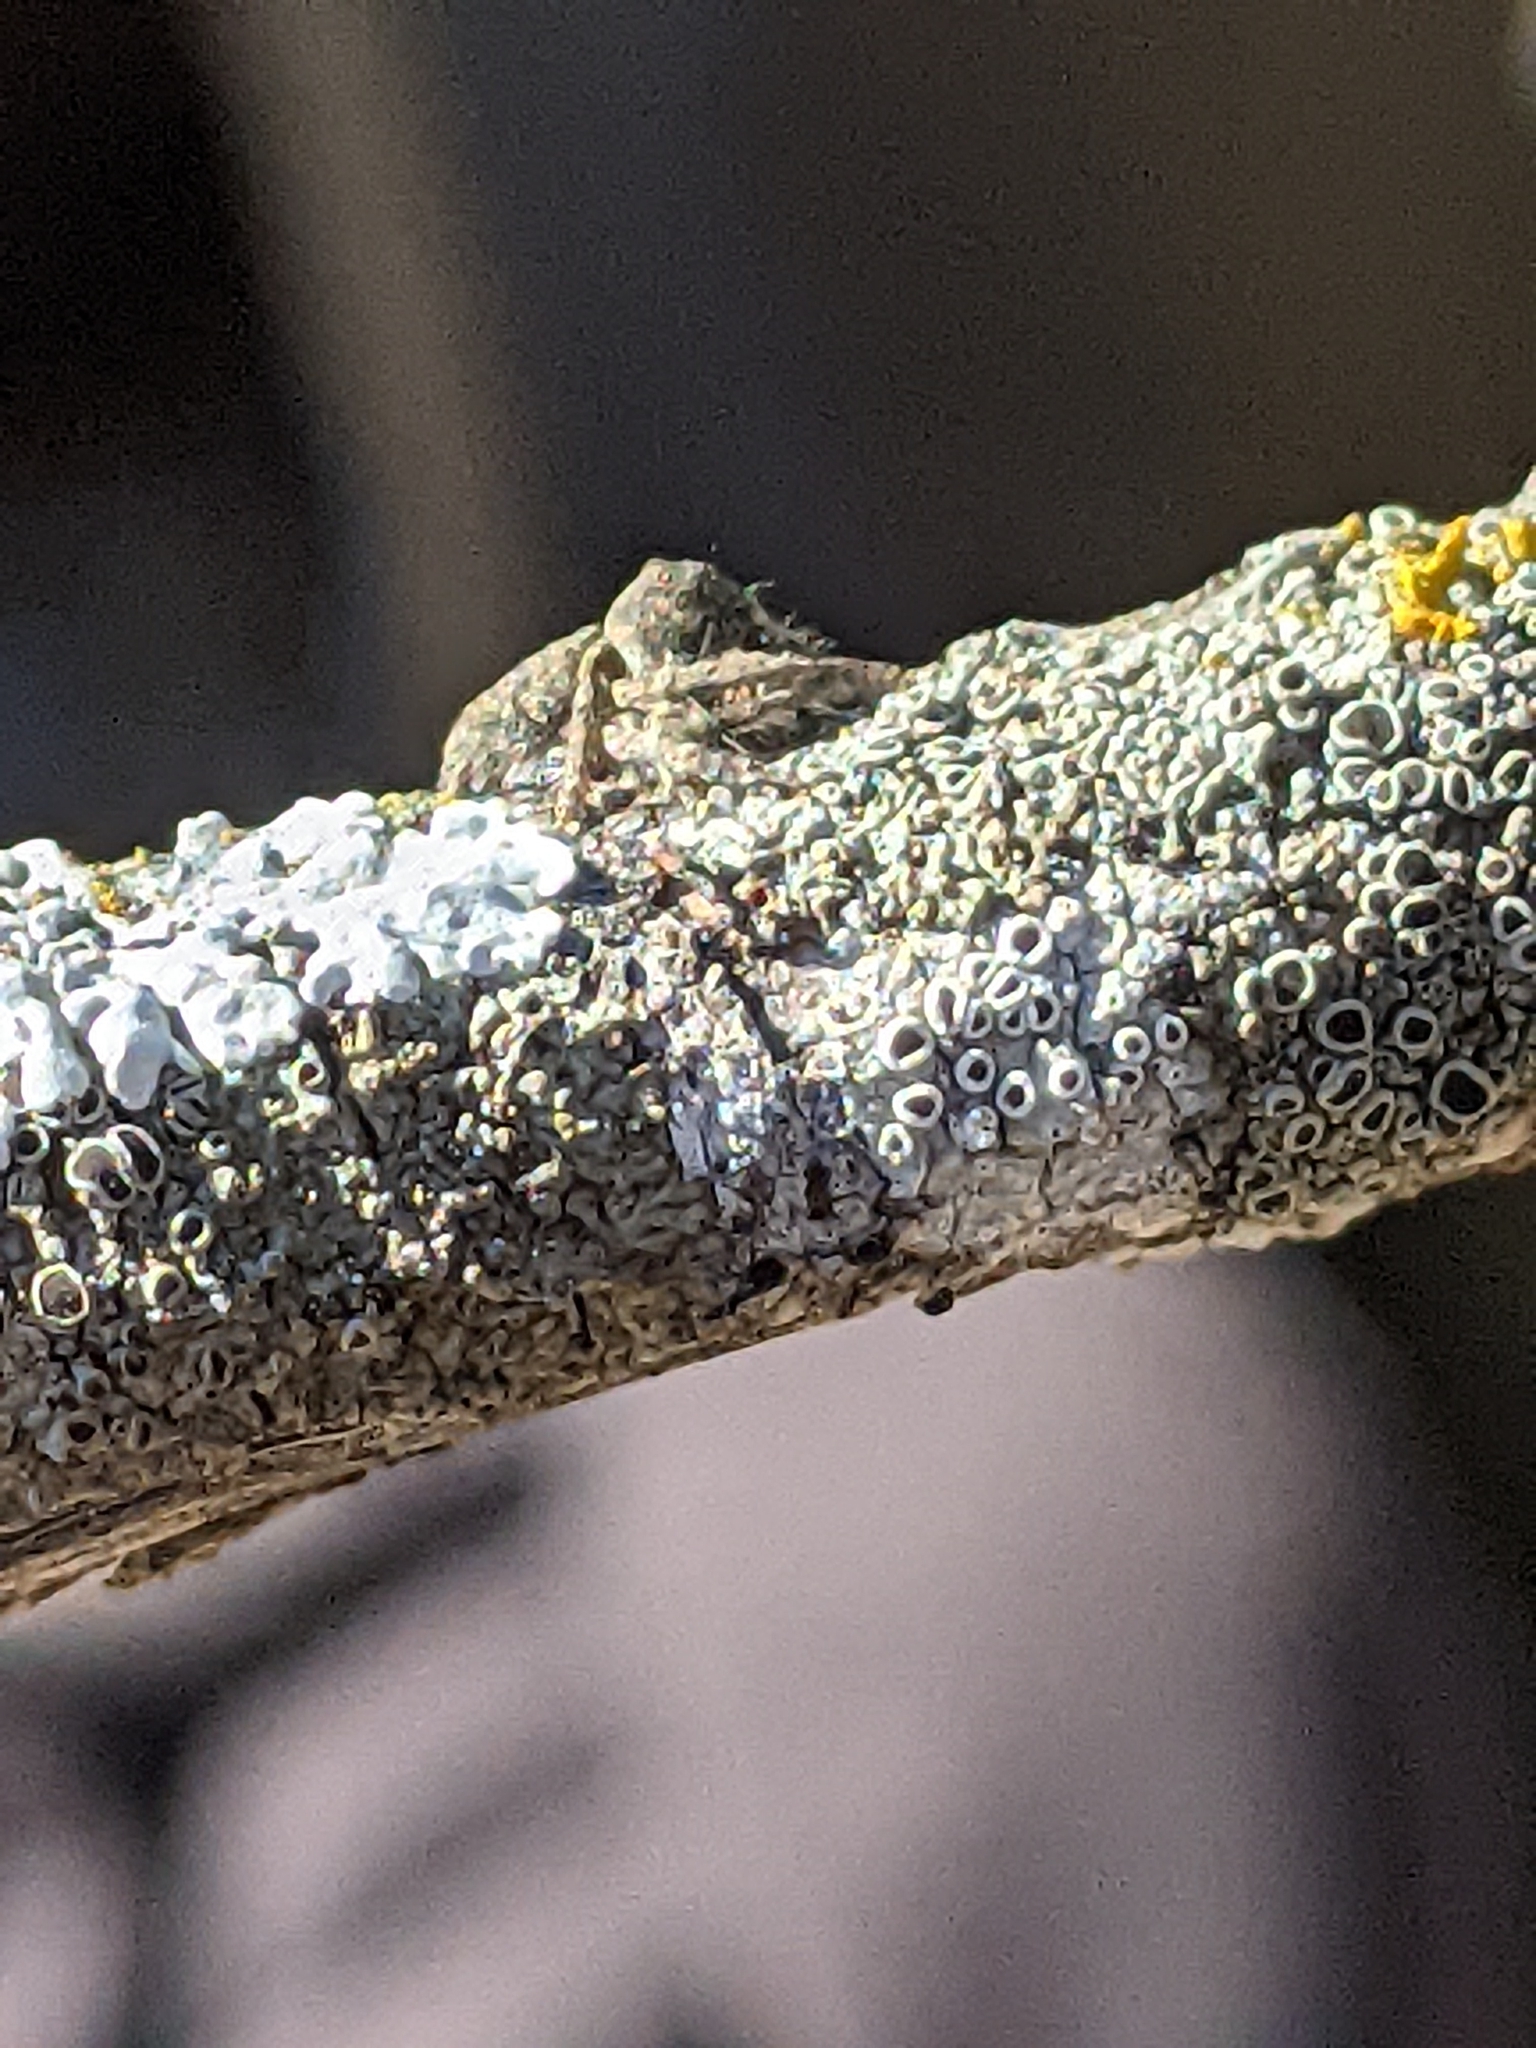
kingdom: Animalia
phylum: Arthropoda
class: Arachnida
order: Araneae
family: Oxyopidae
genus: Hamataliwa
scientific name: Hamataliwa grisea
